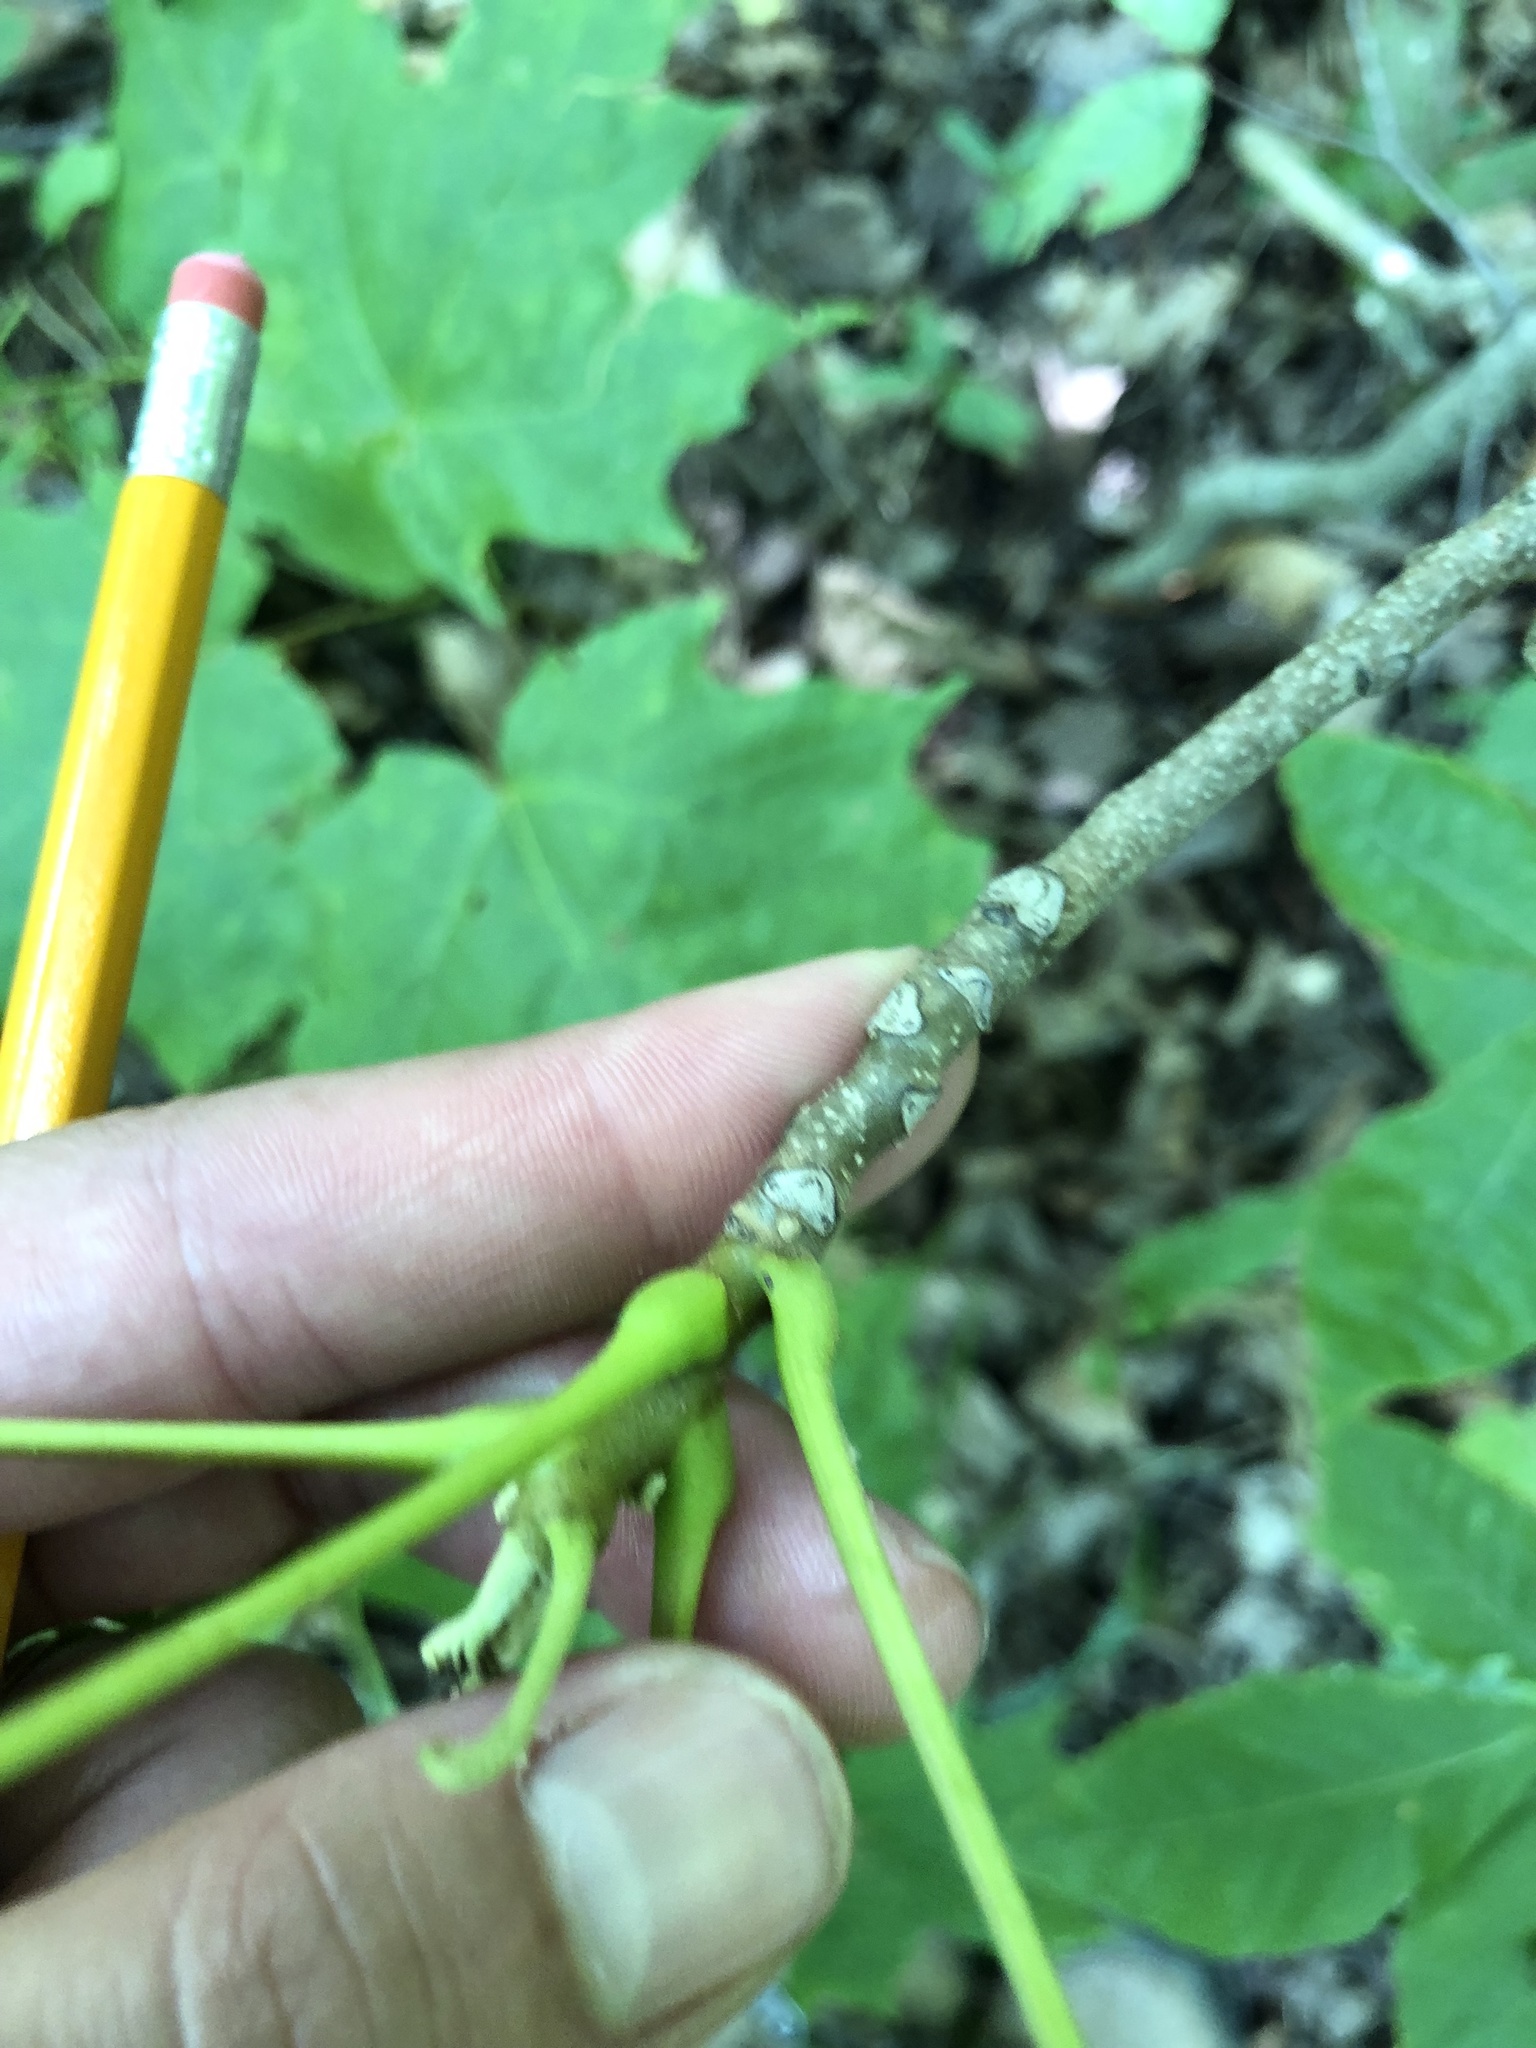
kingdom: Plantae
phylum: Tracheophyta
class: Magnoliopsida
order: Fagales
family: Juglandaceae
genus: Juglans
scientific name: Juglans nigra
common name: Black walnut
